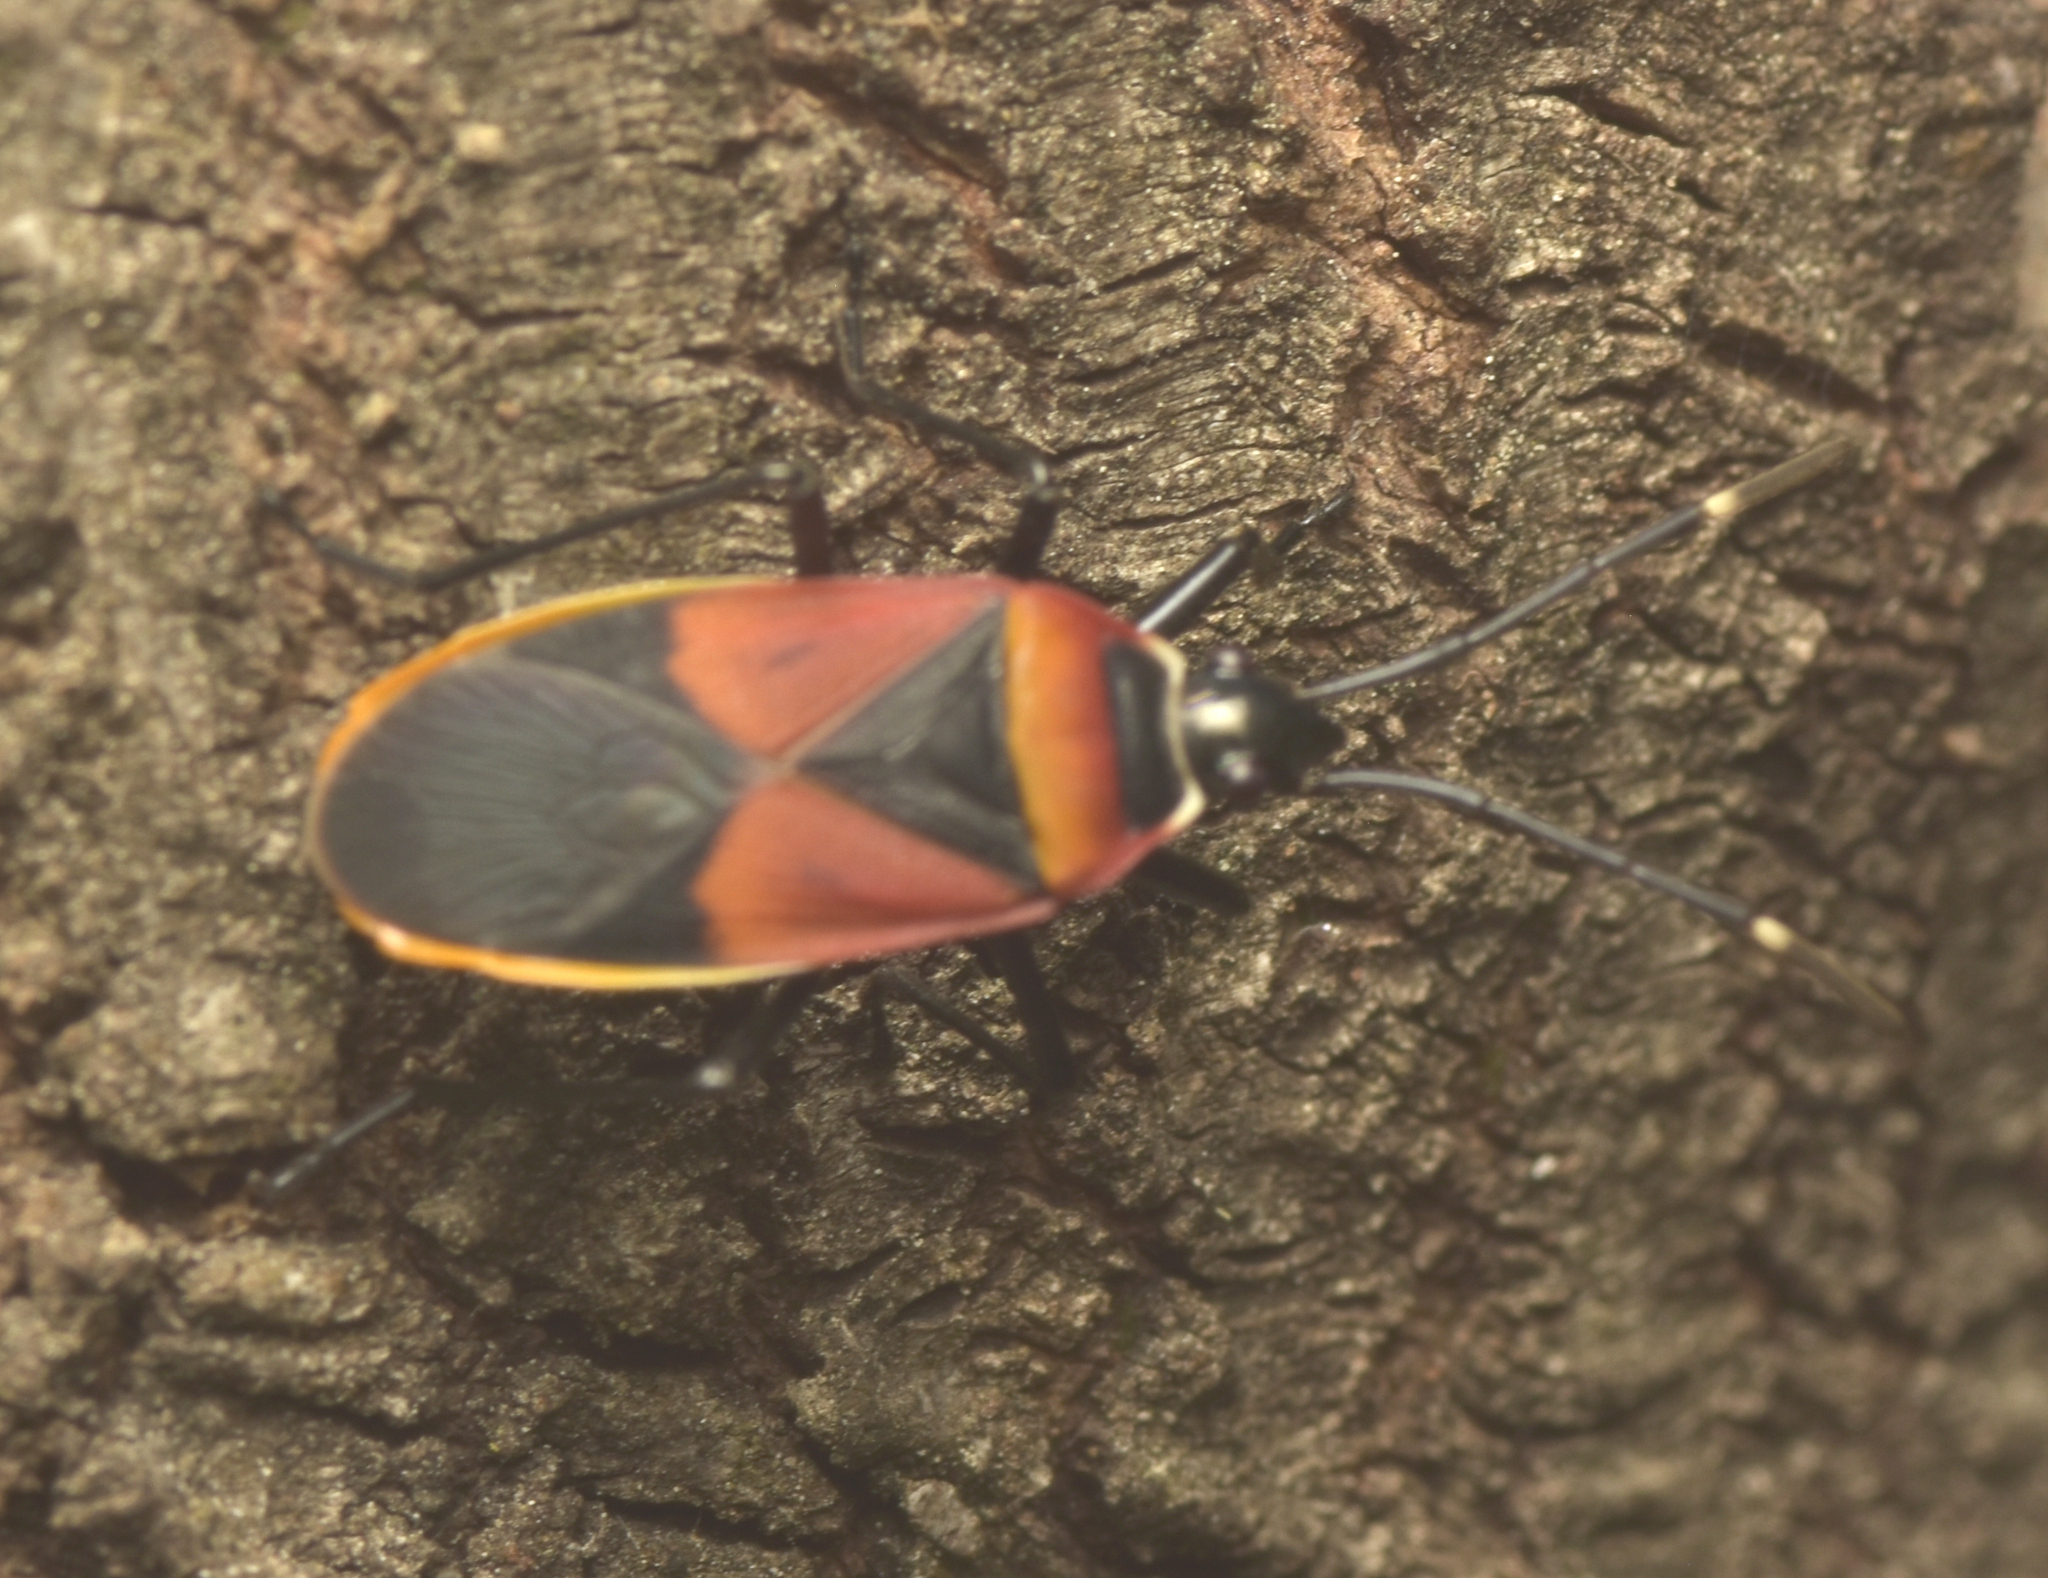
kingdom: Animalia
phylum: Arthropoda
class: Insecta
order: Hemiptera
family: Pyrrhocoridae
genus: Dindymus
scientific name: Dindymus
